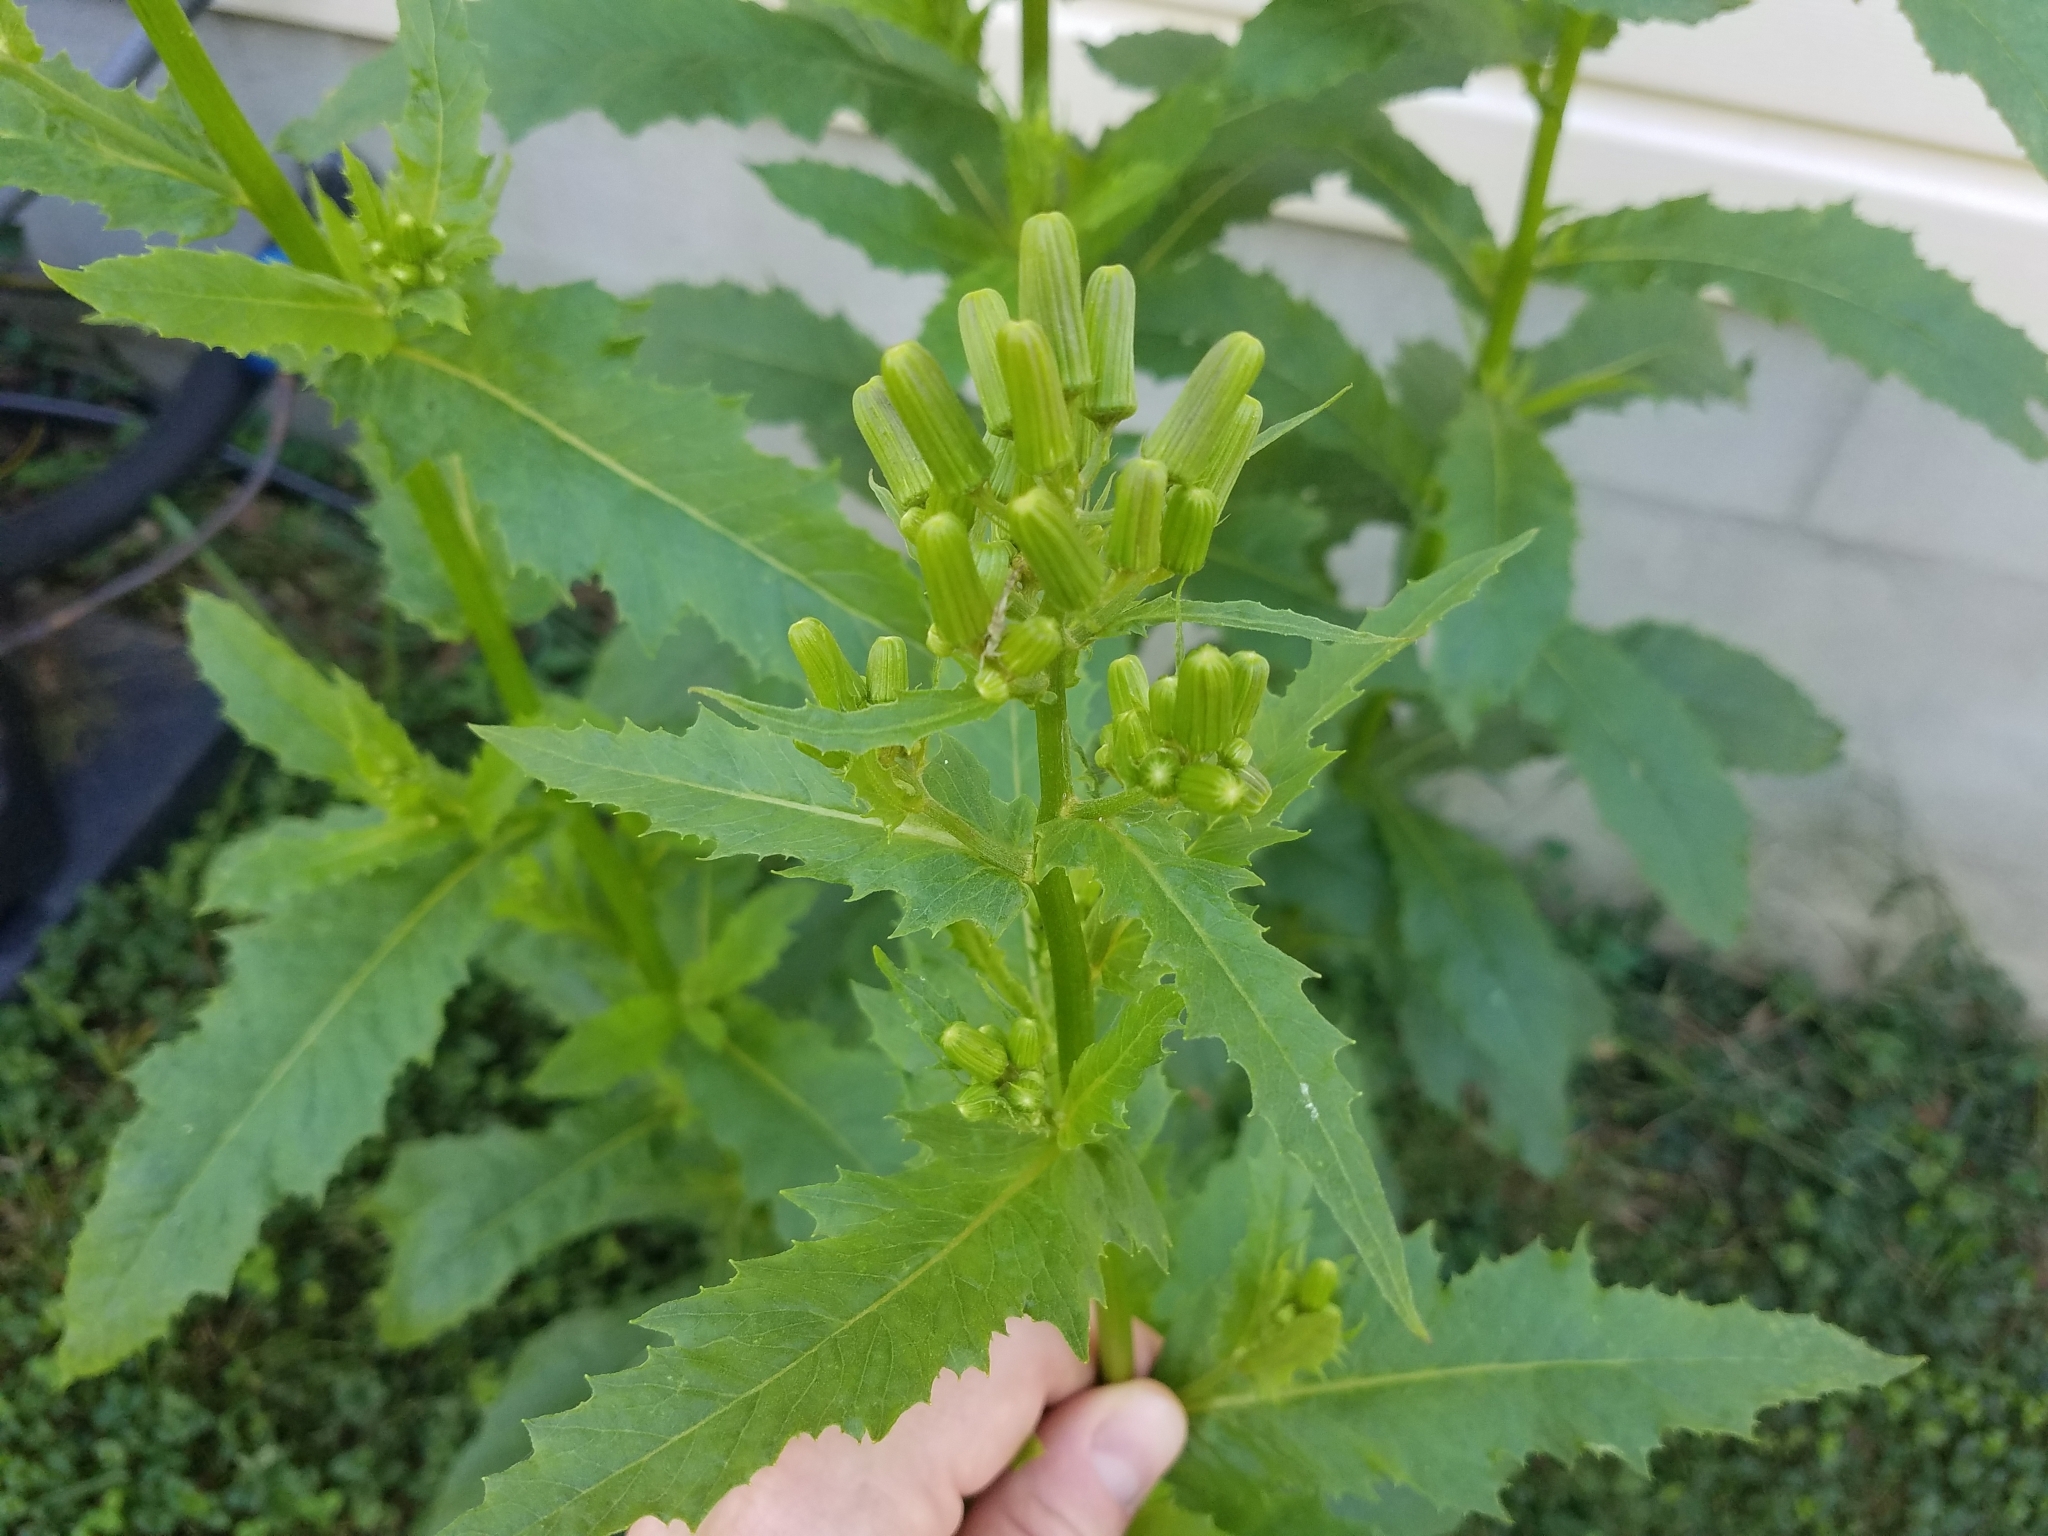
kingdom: Plantae
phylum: Tracheophyta
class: Magnoliopsida
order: Asterales
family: Asteraceae
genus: Erechtites
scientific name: Erechtites hieraciifolius
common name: American burnweed
